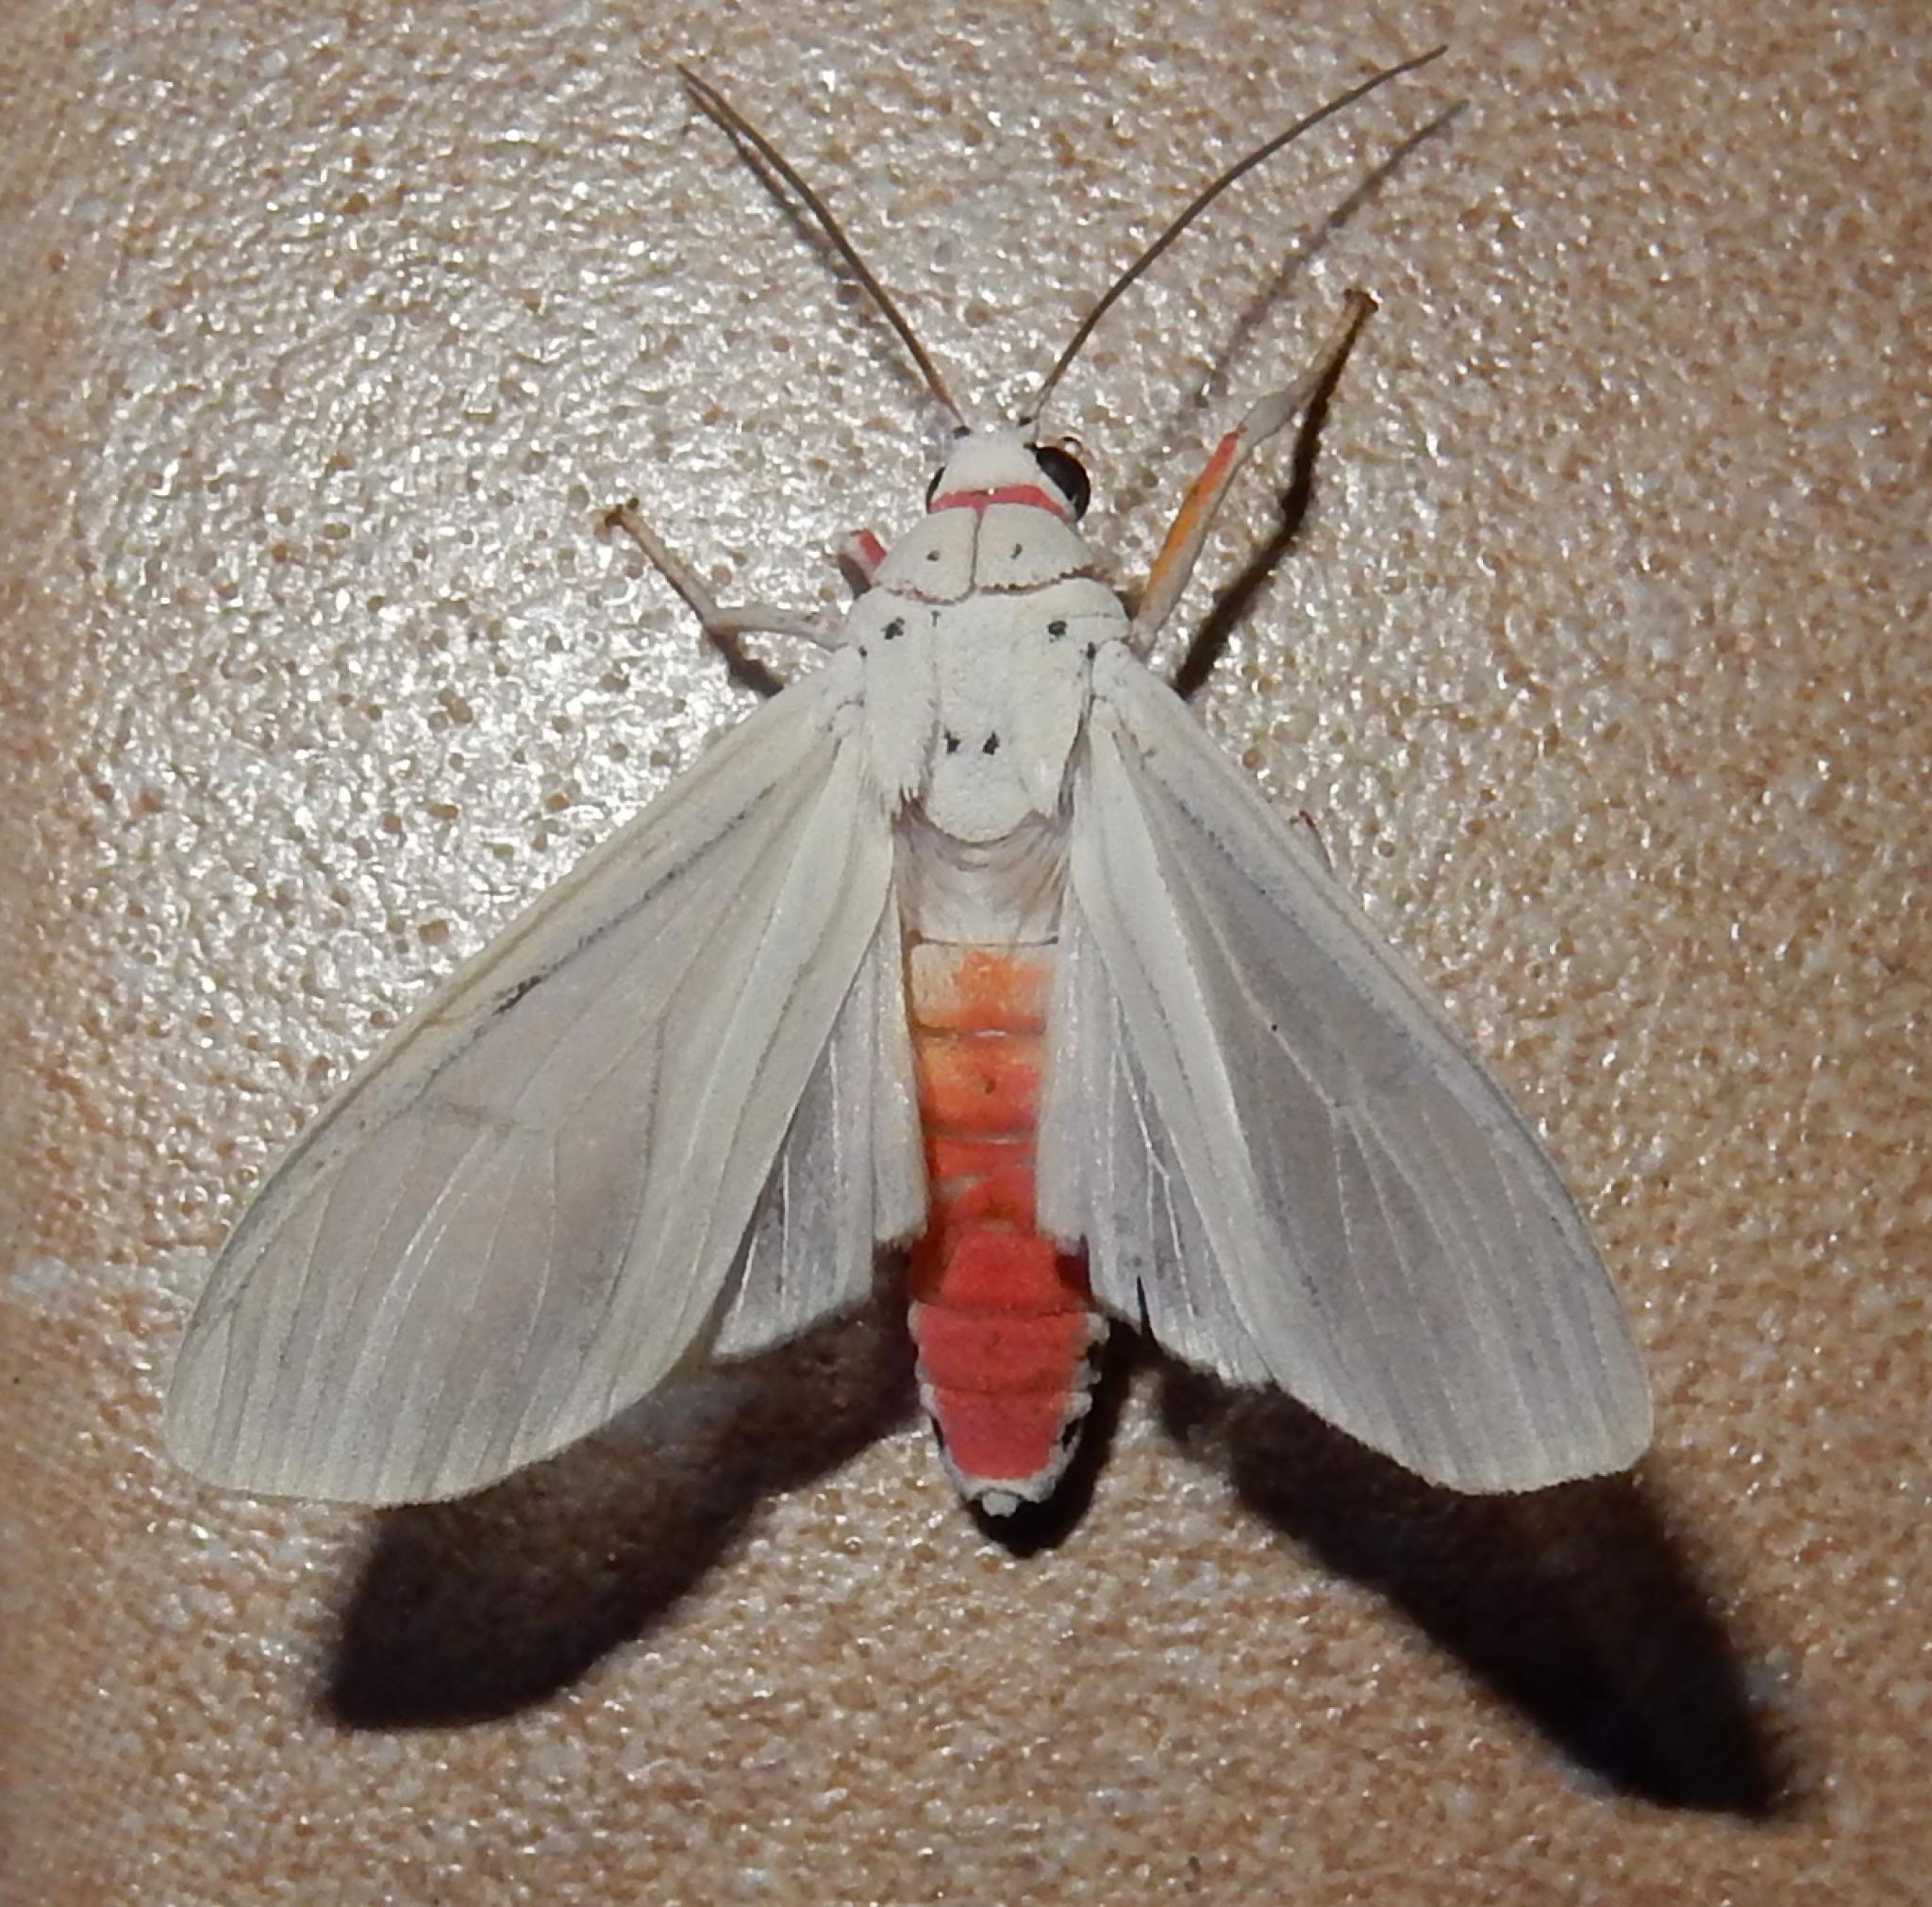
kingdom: Animalia
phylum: Arthropoda
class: Insecta
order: Lepidoptera
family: Erebidae
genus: Amerila
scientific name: Amerila lupia
